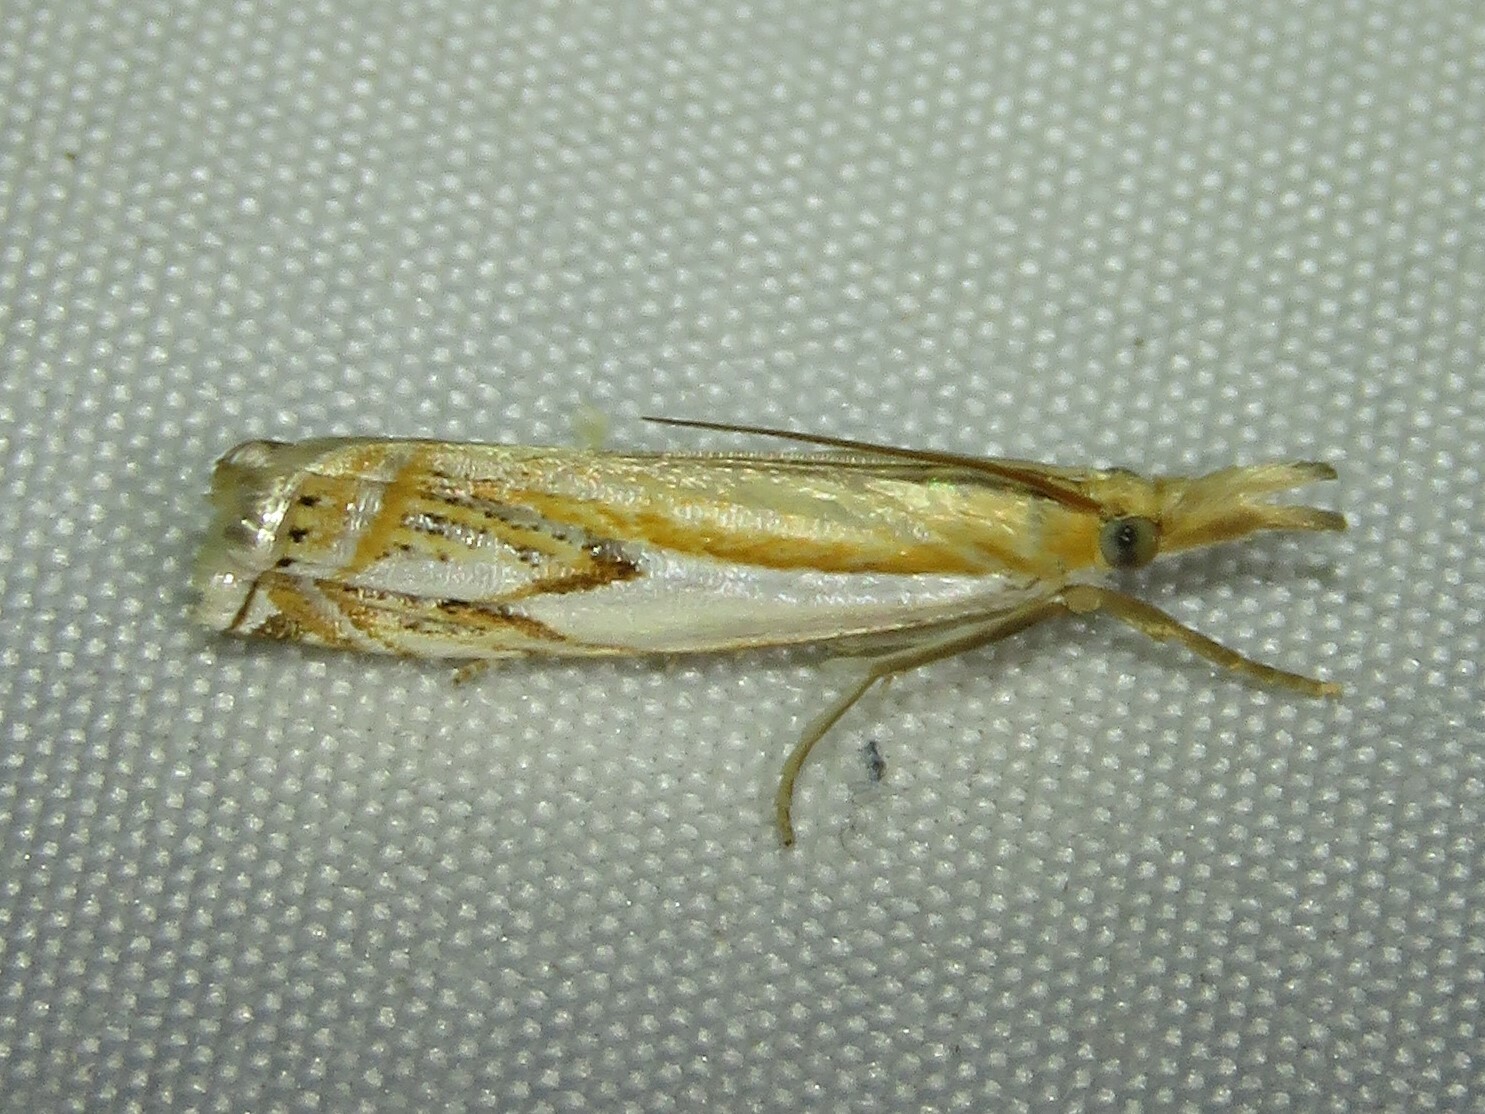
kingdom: Animalia
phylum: Arthropoda
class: Insecta
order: Lepidoptera
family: Crambidae
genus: Crambus
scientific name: Crambus agitatellus
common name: Double-banded grass-veneer
